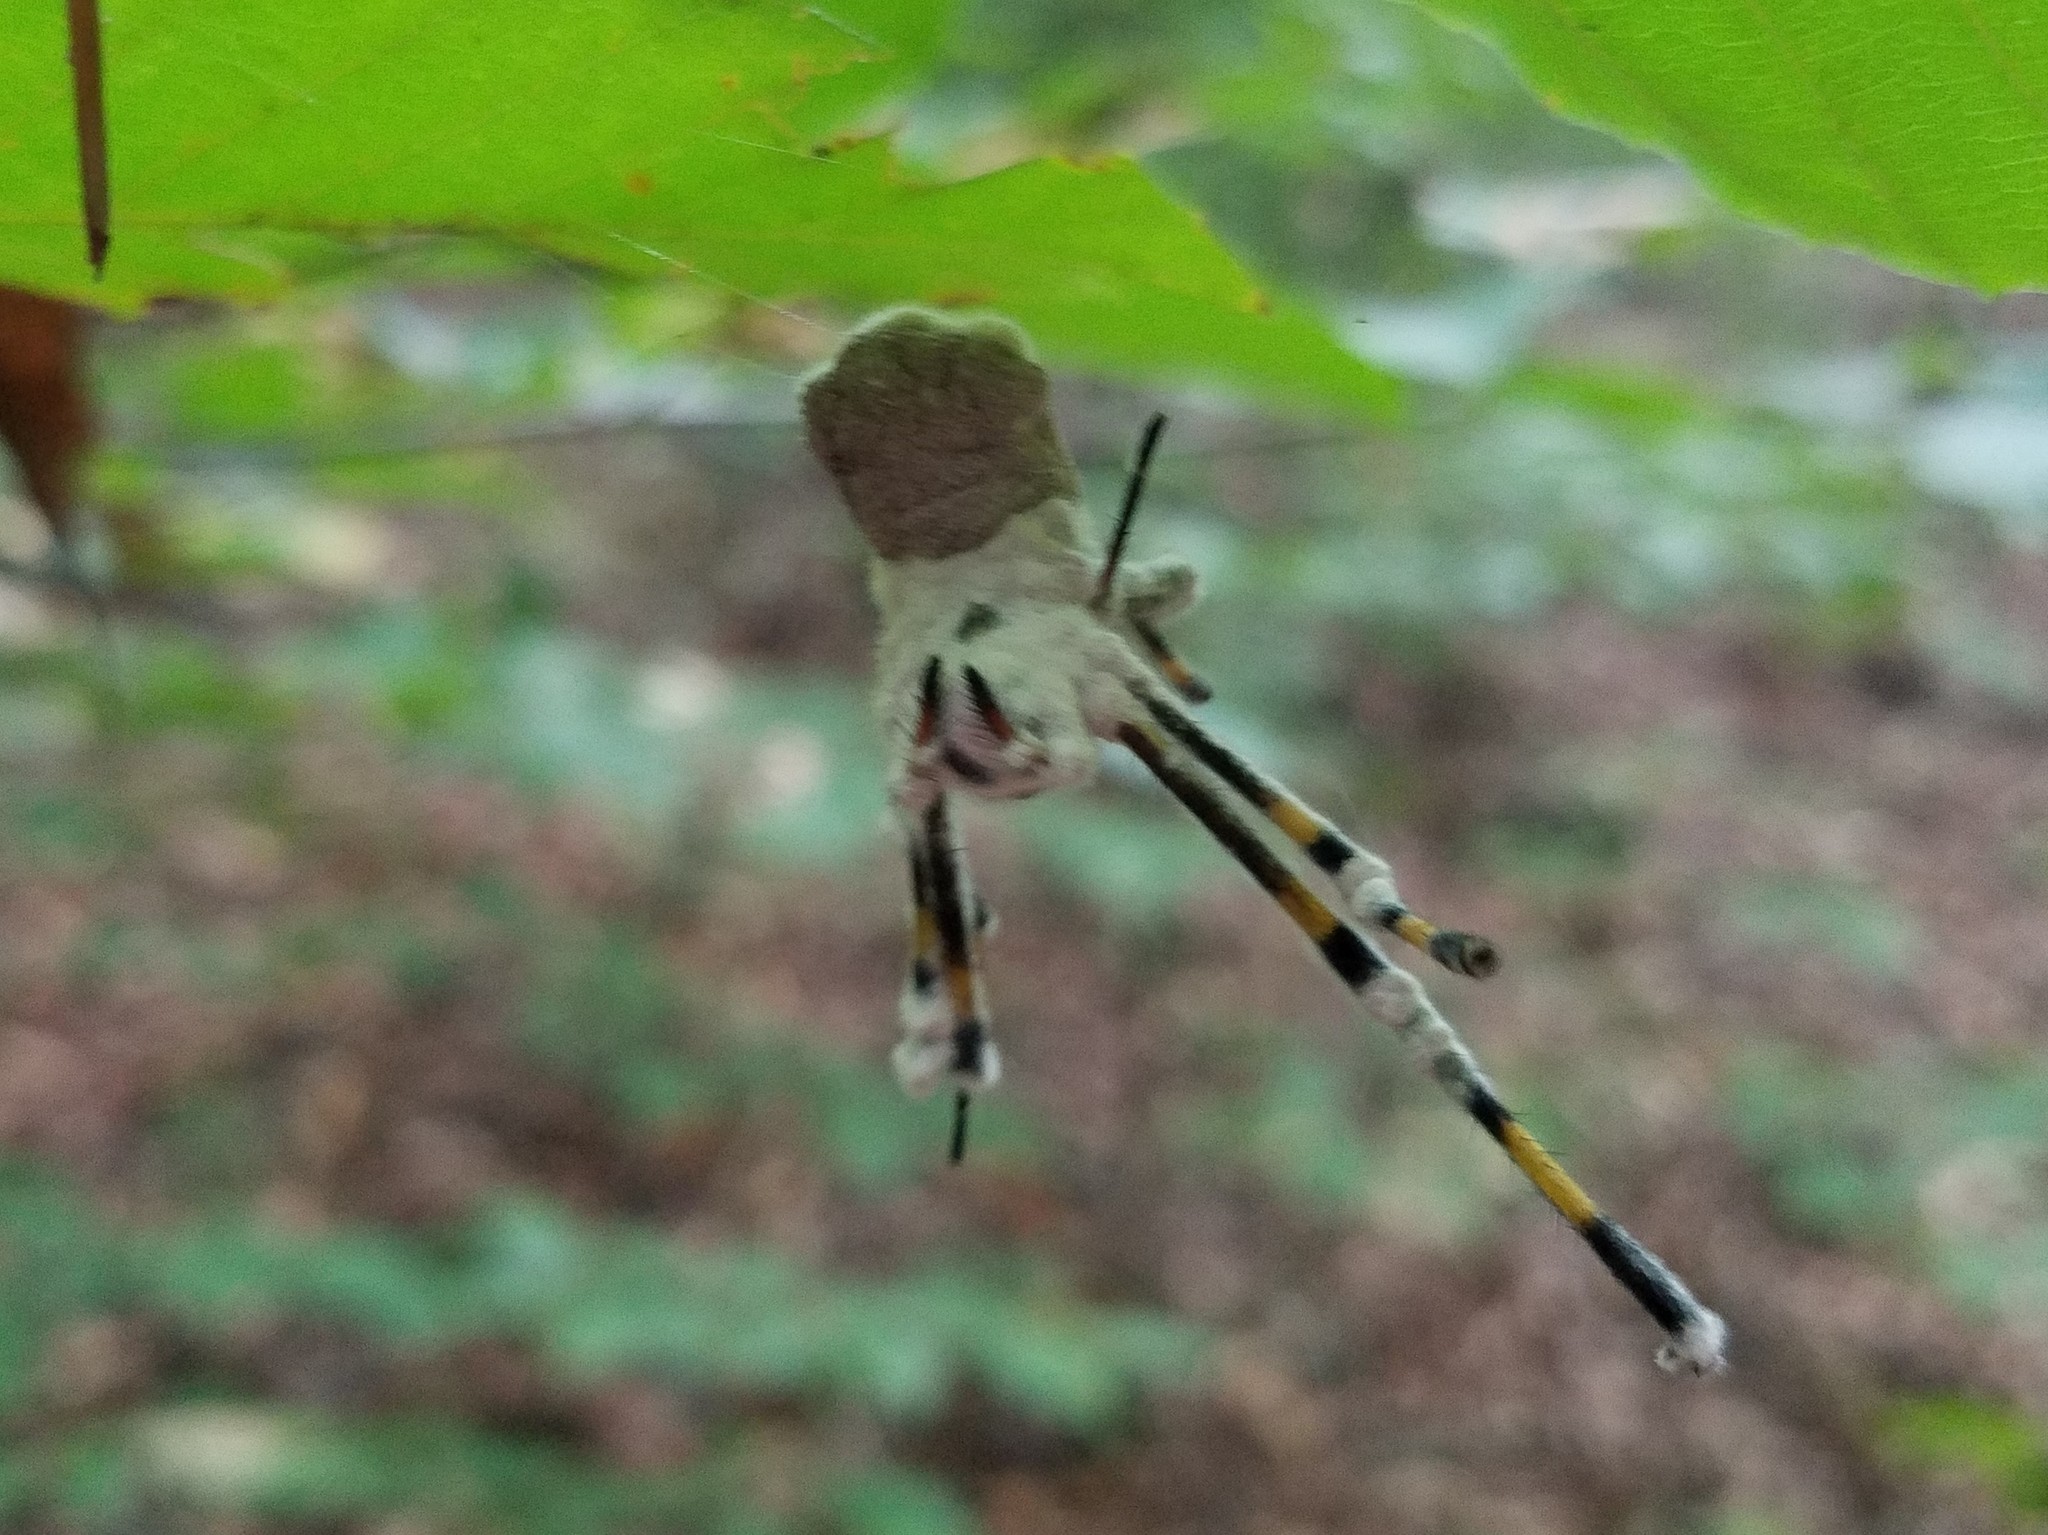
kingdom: Animalia
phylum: Arthropoda
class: Arachnida
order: Araneae
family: Araneidae
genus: Trichonephila
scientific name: Trichonephila clavata
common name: Jorō spider
